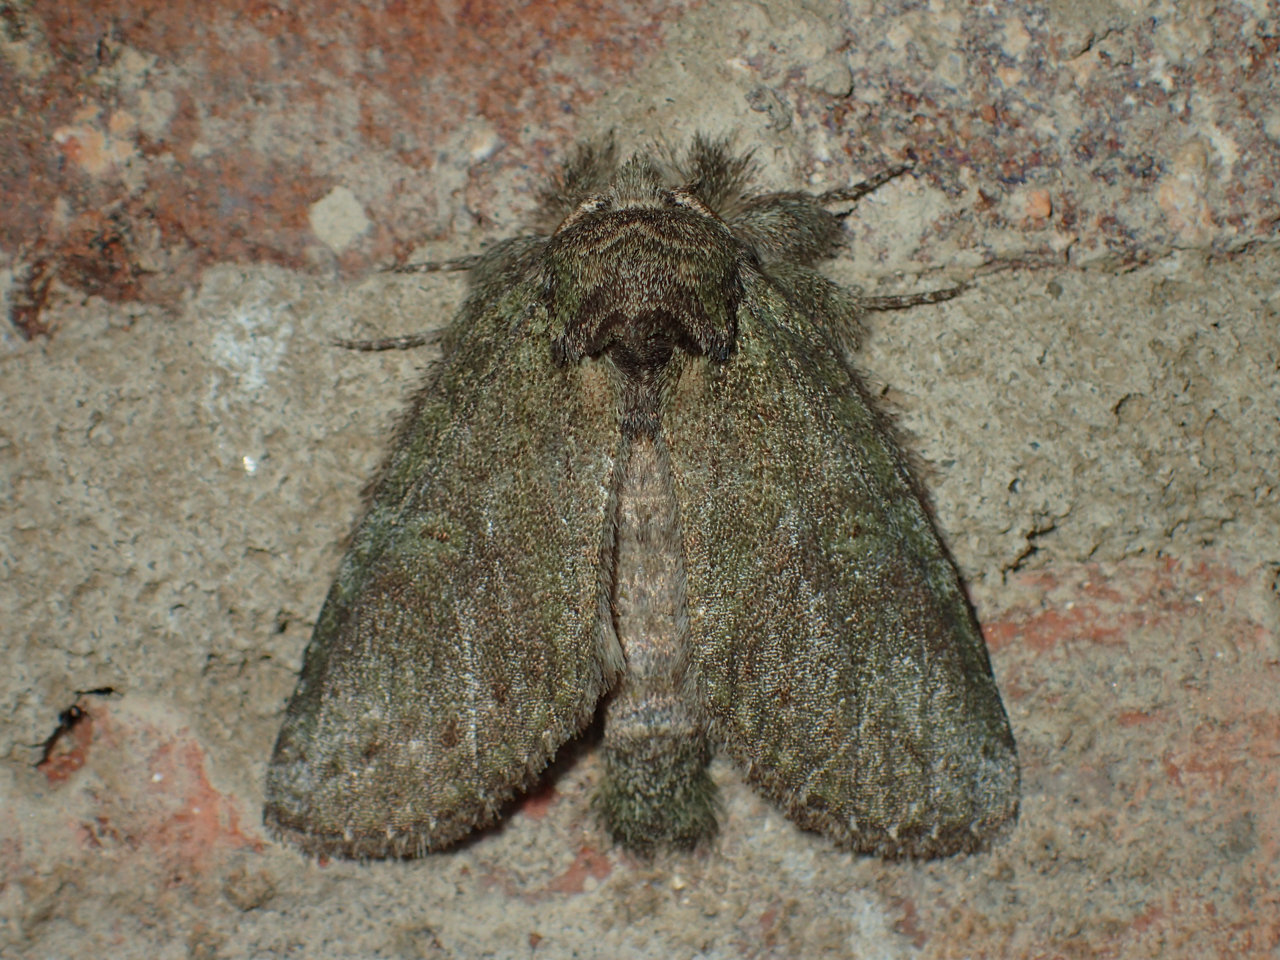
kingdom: Animalia
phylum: Arthropoda
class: Insecta
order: Lepidoptera
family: Notodontidae
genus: Disphragis
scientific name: Disphragis Cecrita guttivitta
